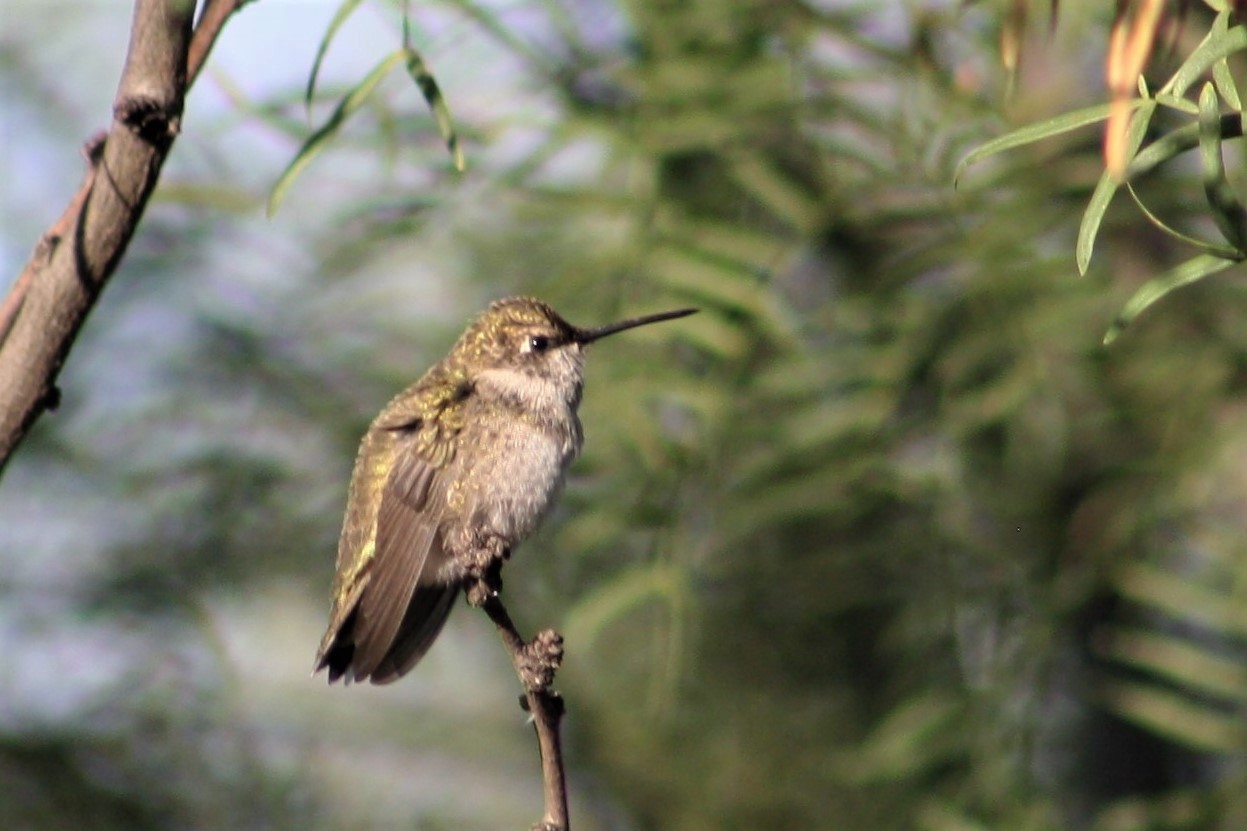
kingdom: Animalia
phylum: Chordata
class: Aves
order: Apodiformes
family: Trochilidae
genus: Archilochus
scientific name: Archilochus alexandri
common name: Black-chinned hummingbird
